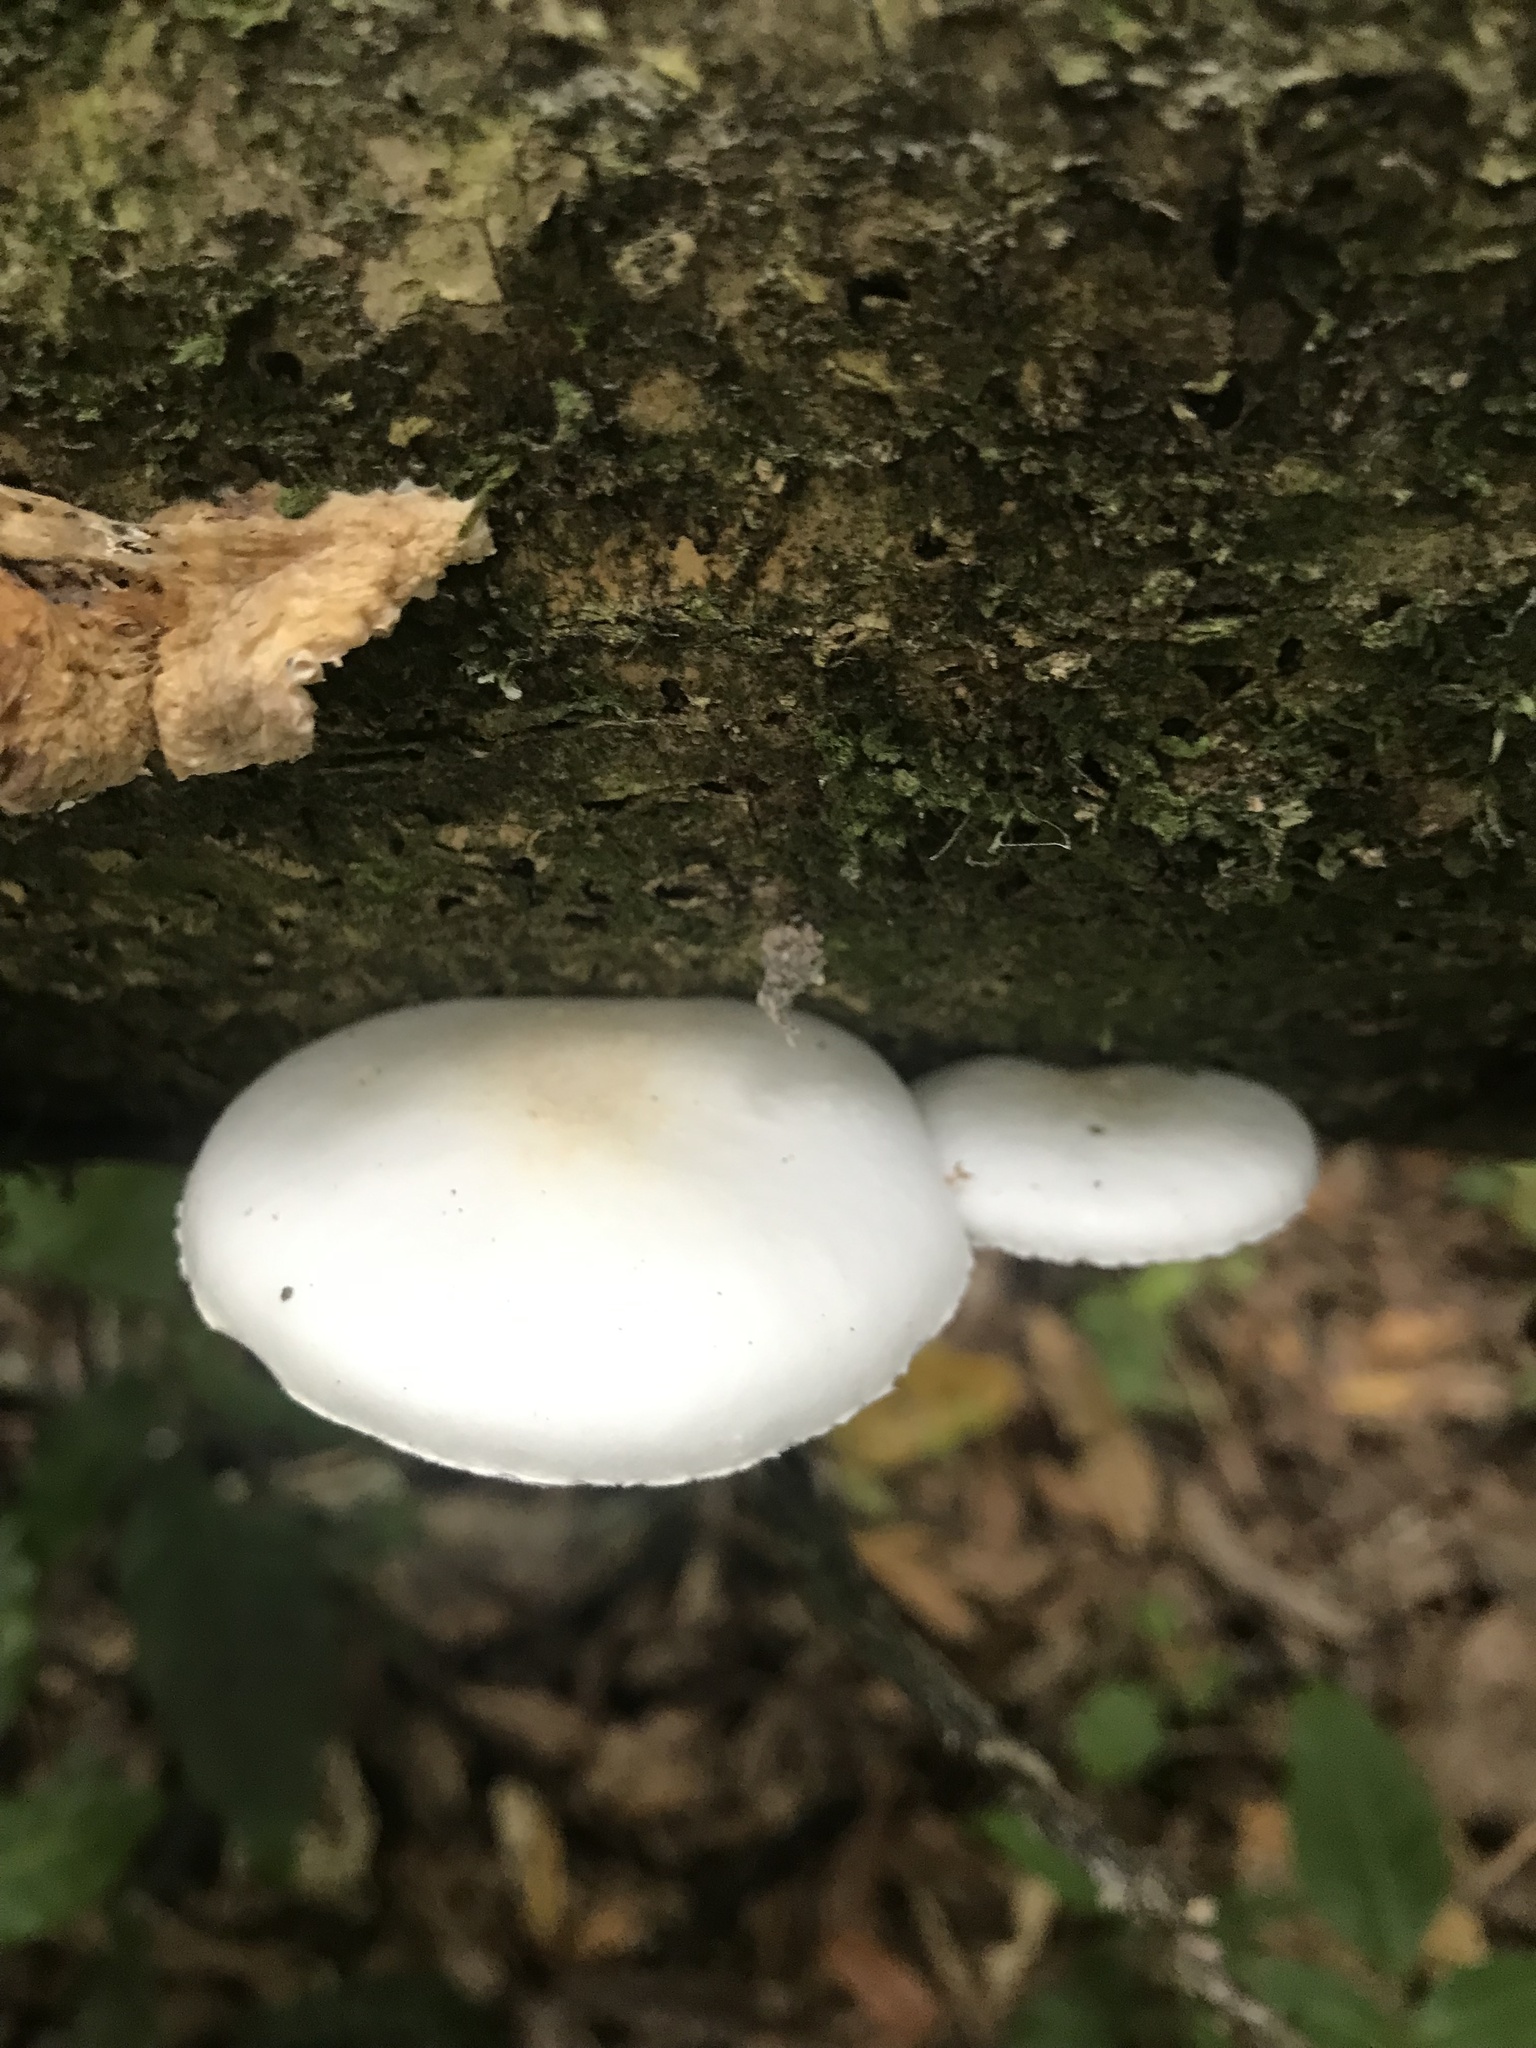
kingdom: Fungi
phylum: Basidiomycota
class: Agaricomycetes
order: Agaricales
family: Physalacriaceae
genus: Oudemansiella
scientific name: Oudemansiella australis
